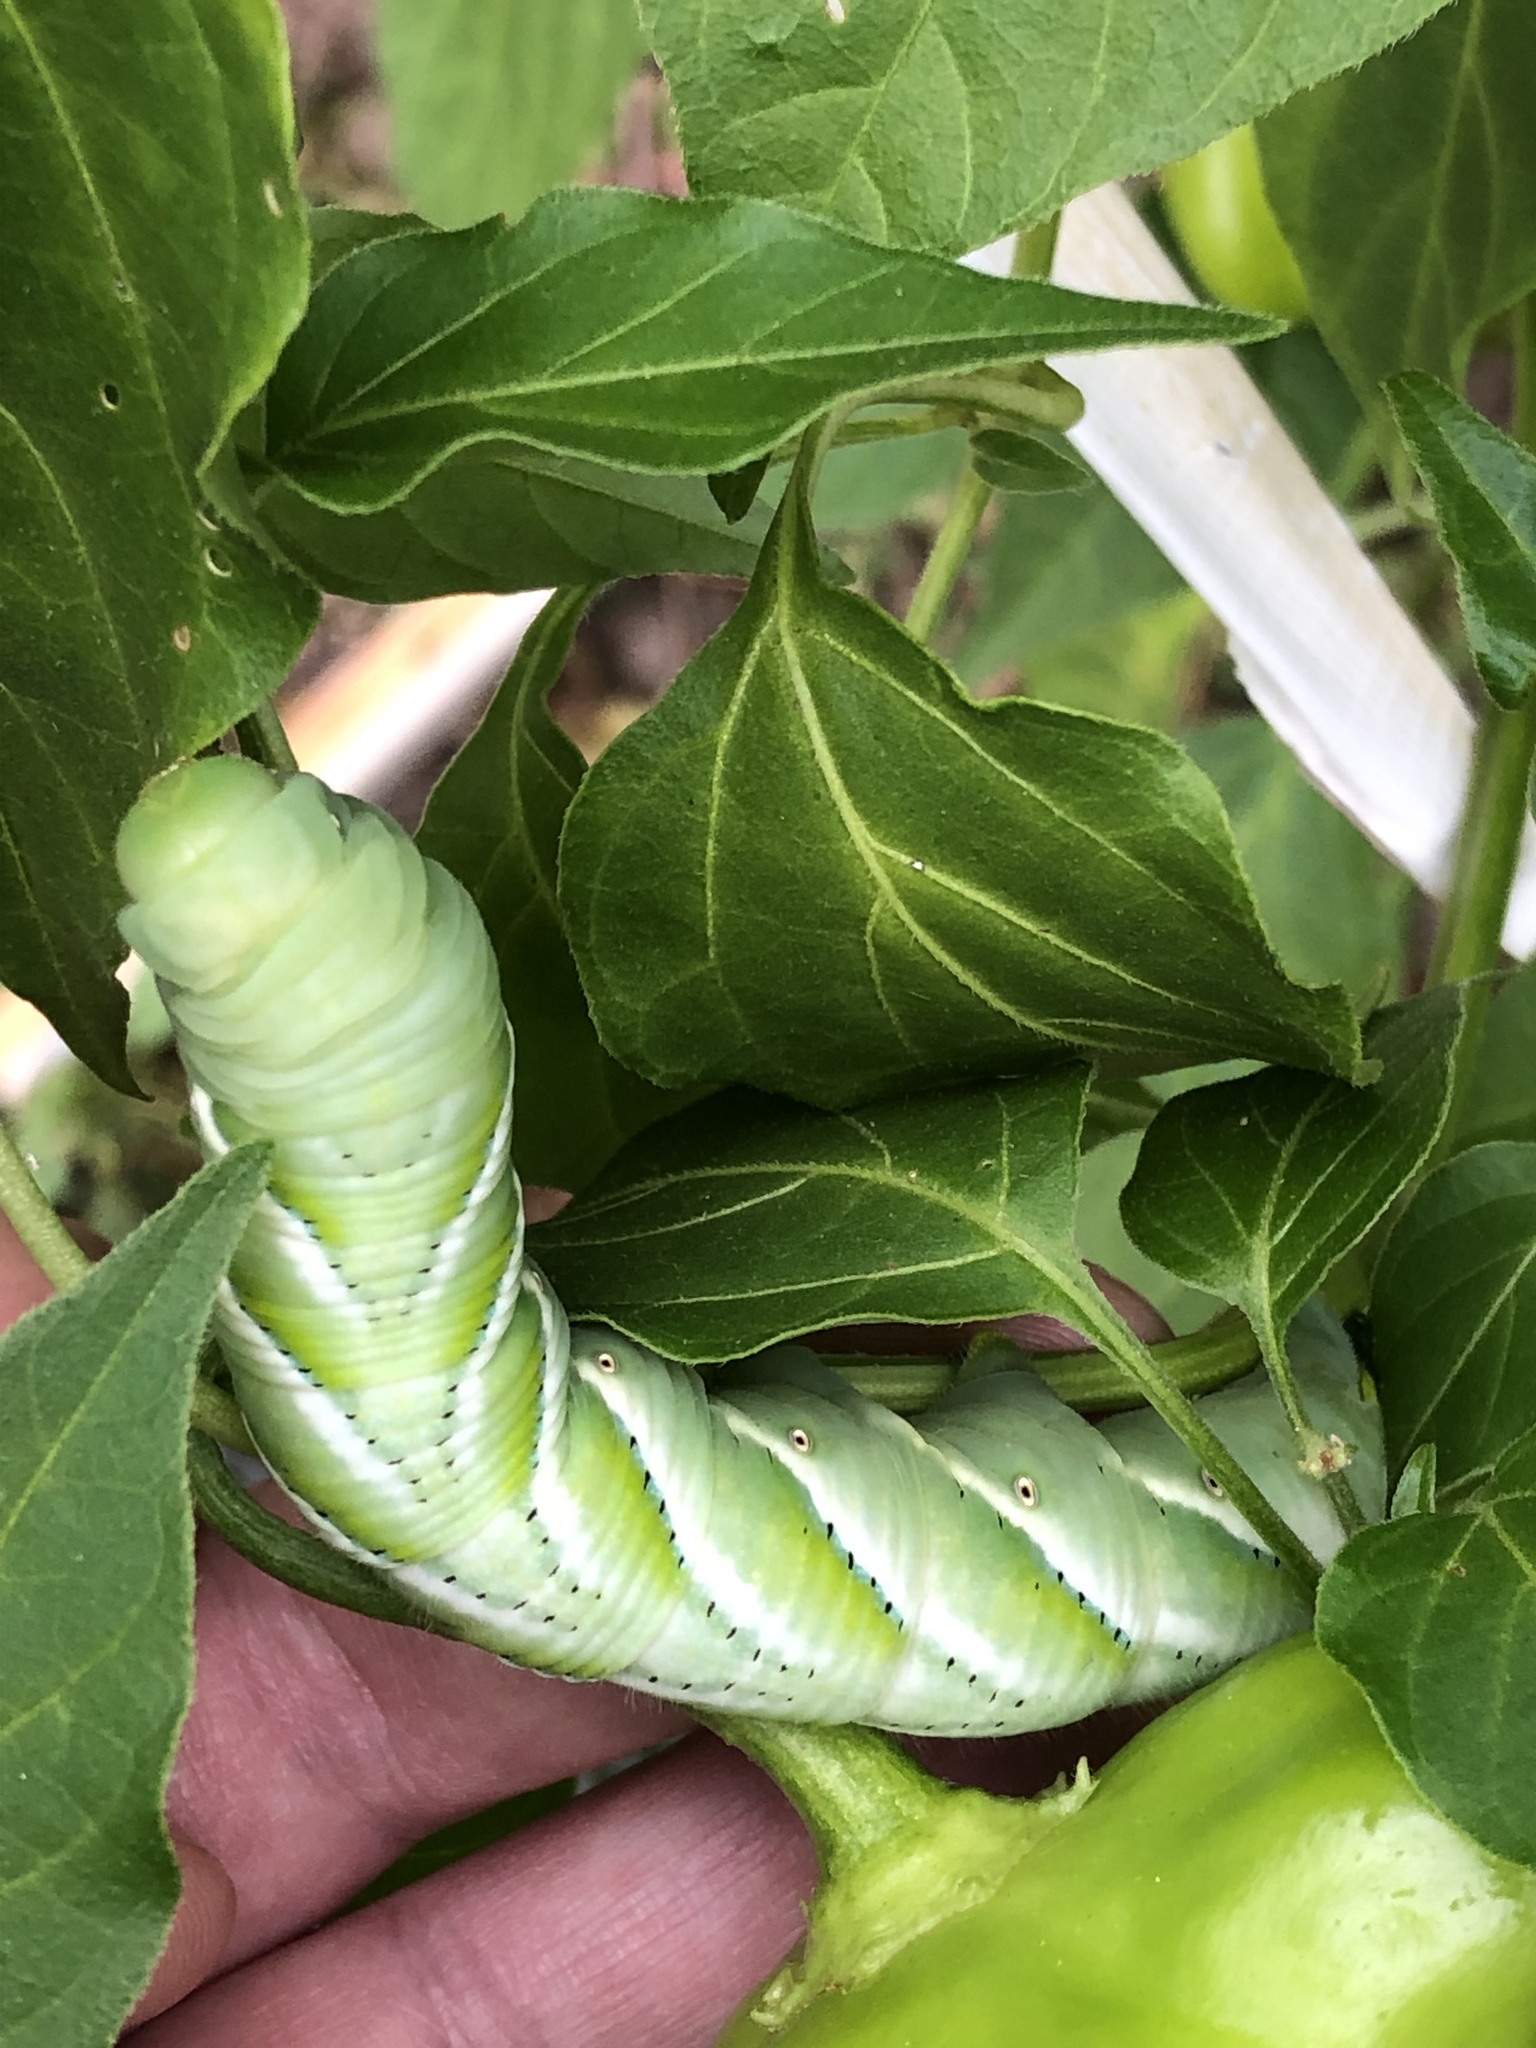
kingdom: Animalia
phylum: Arthropoda
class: Insecta
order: Lepidoptera
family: Sphingidae
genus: Manduca
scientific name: Manduca sexta
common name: Carolina sphinx
